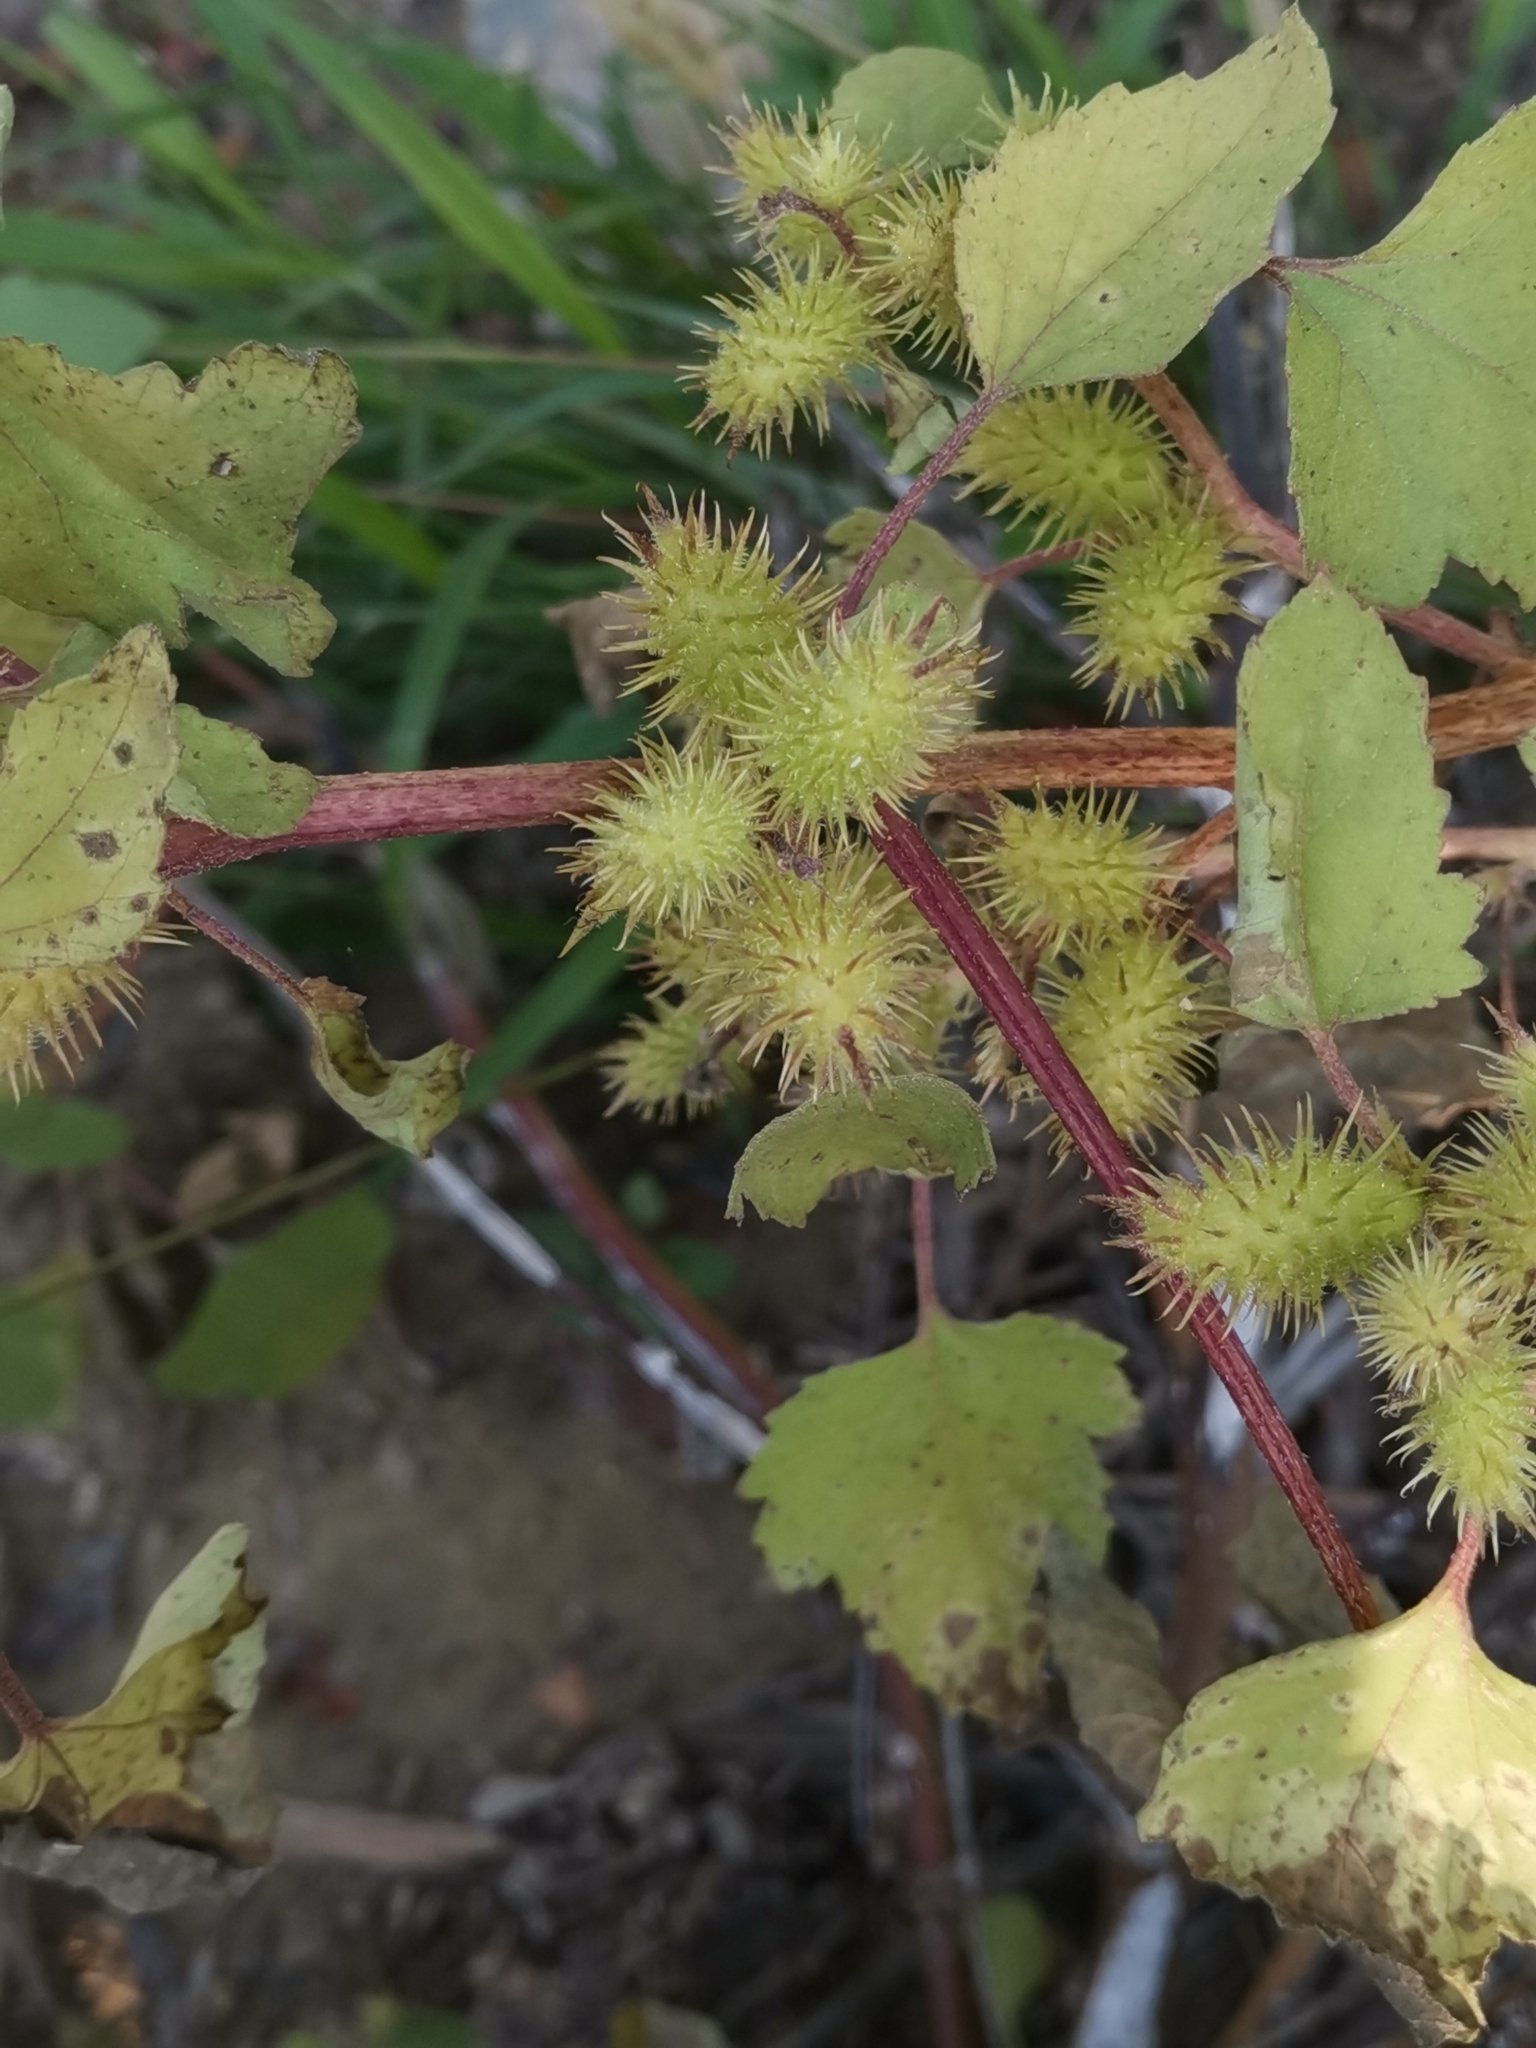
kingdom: Plantae
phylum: Tracheophyta
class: Magnoliopsida
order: Asterales
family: Asteraceae
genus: Xanthium
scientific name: Xanthium orientale
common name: Californian burr
